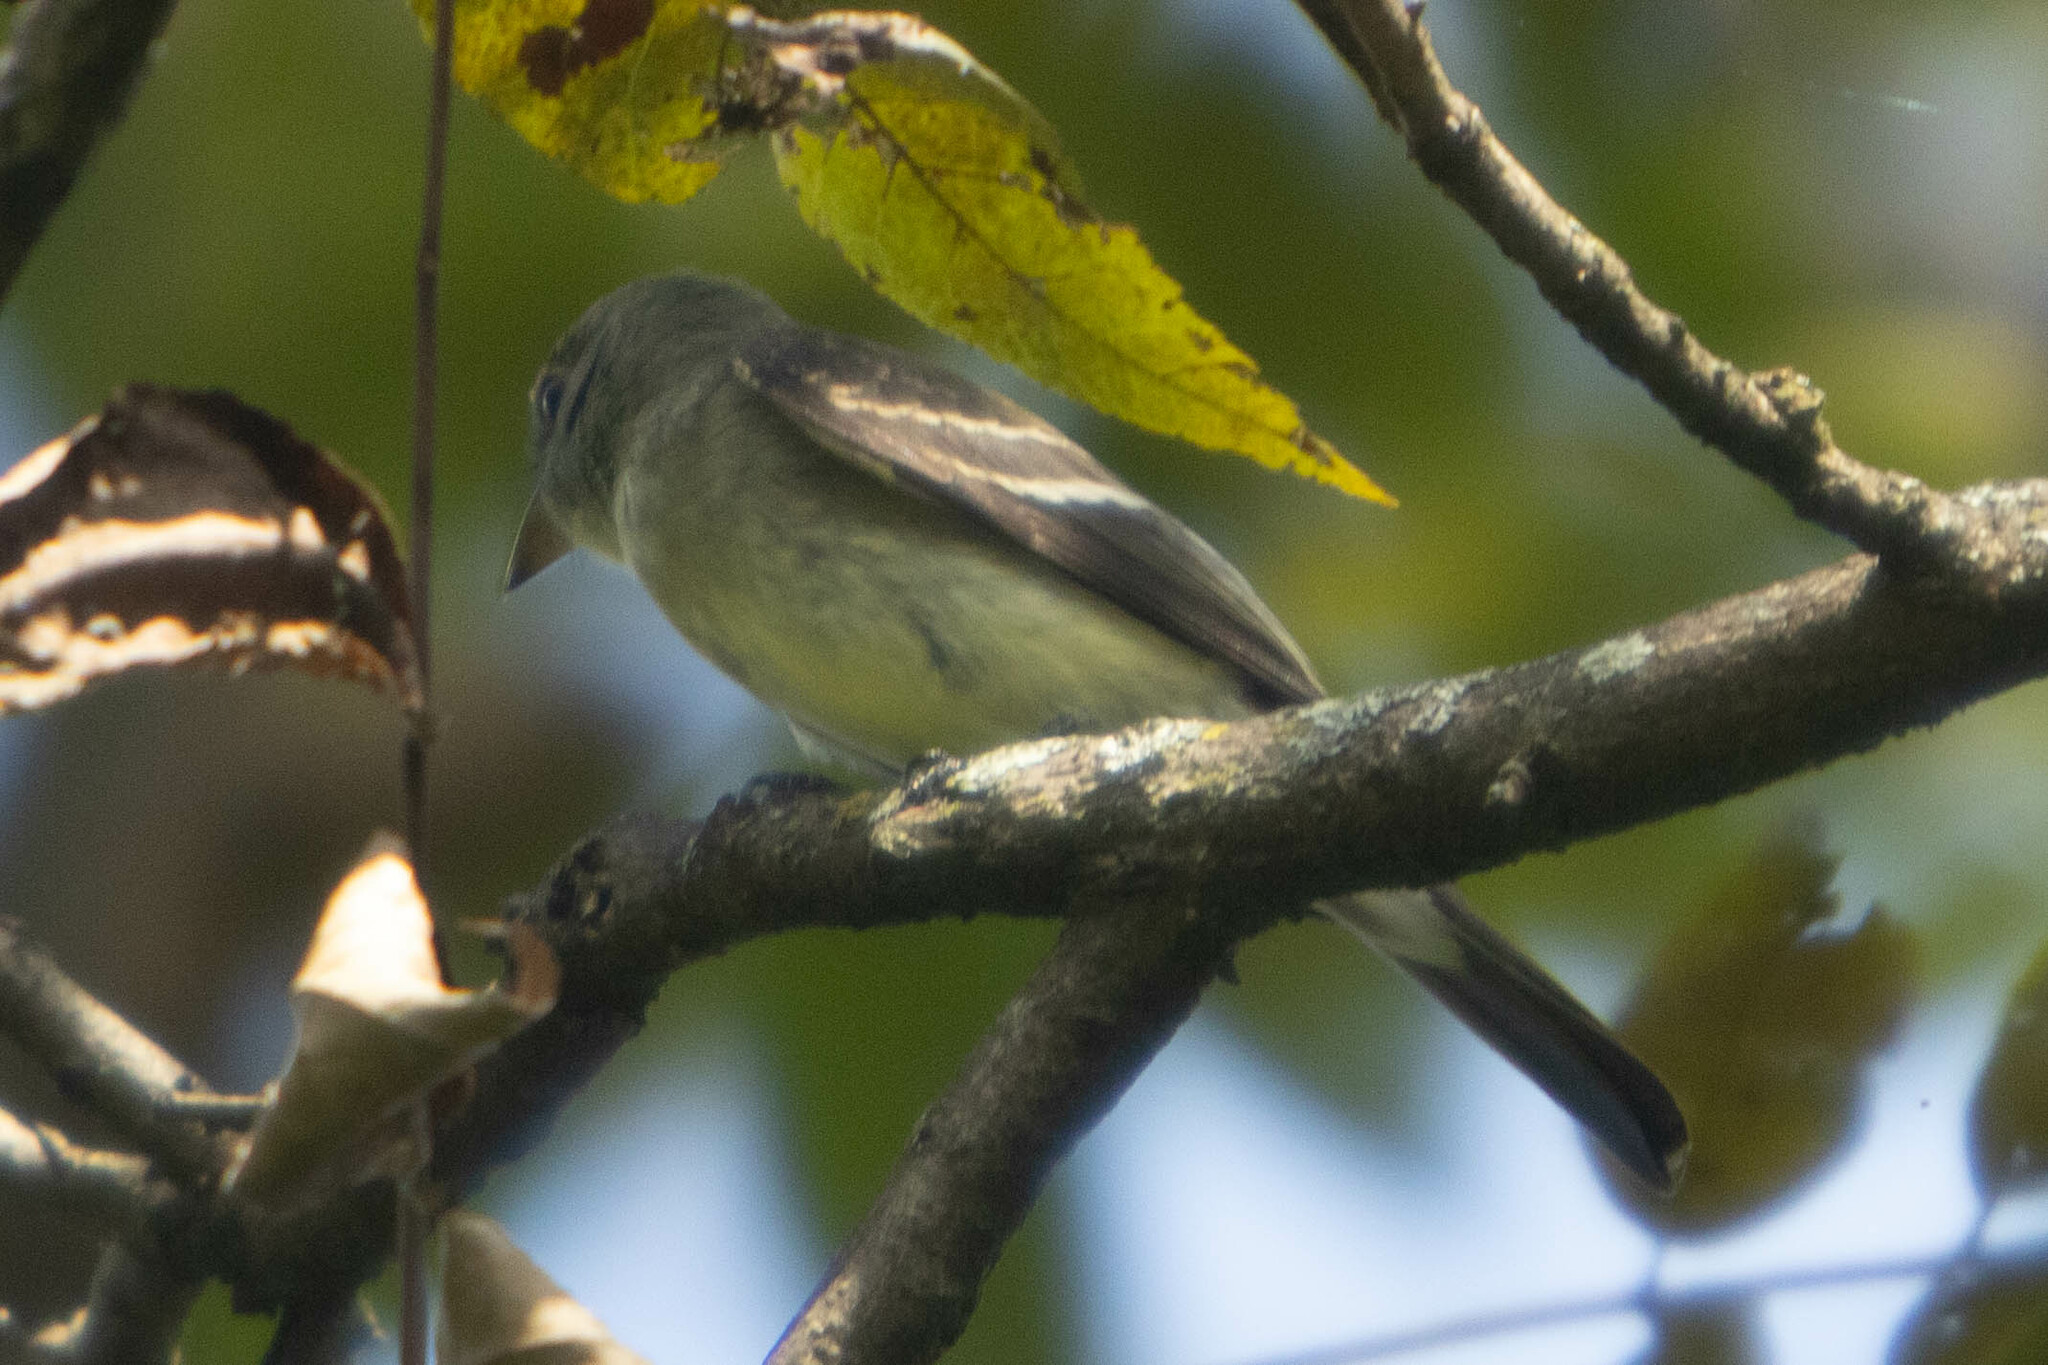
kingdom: Animalia
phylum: Chordata
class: Aves
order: Passeriformes
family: Tyrannidae
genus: Contopus
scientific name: Contopus virens
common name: Eastern wood-pewee
